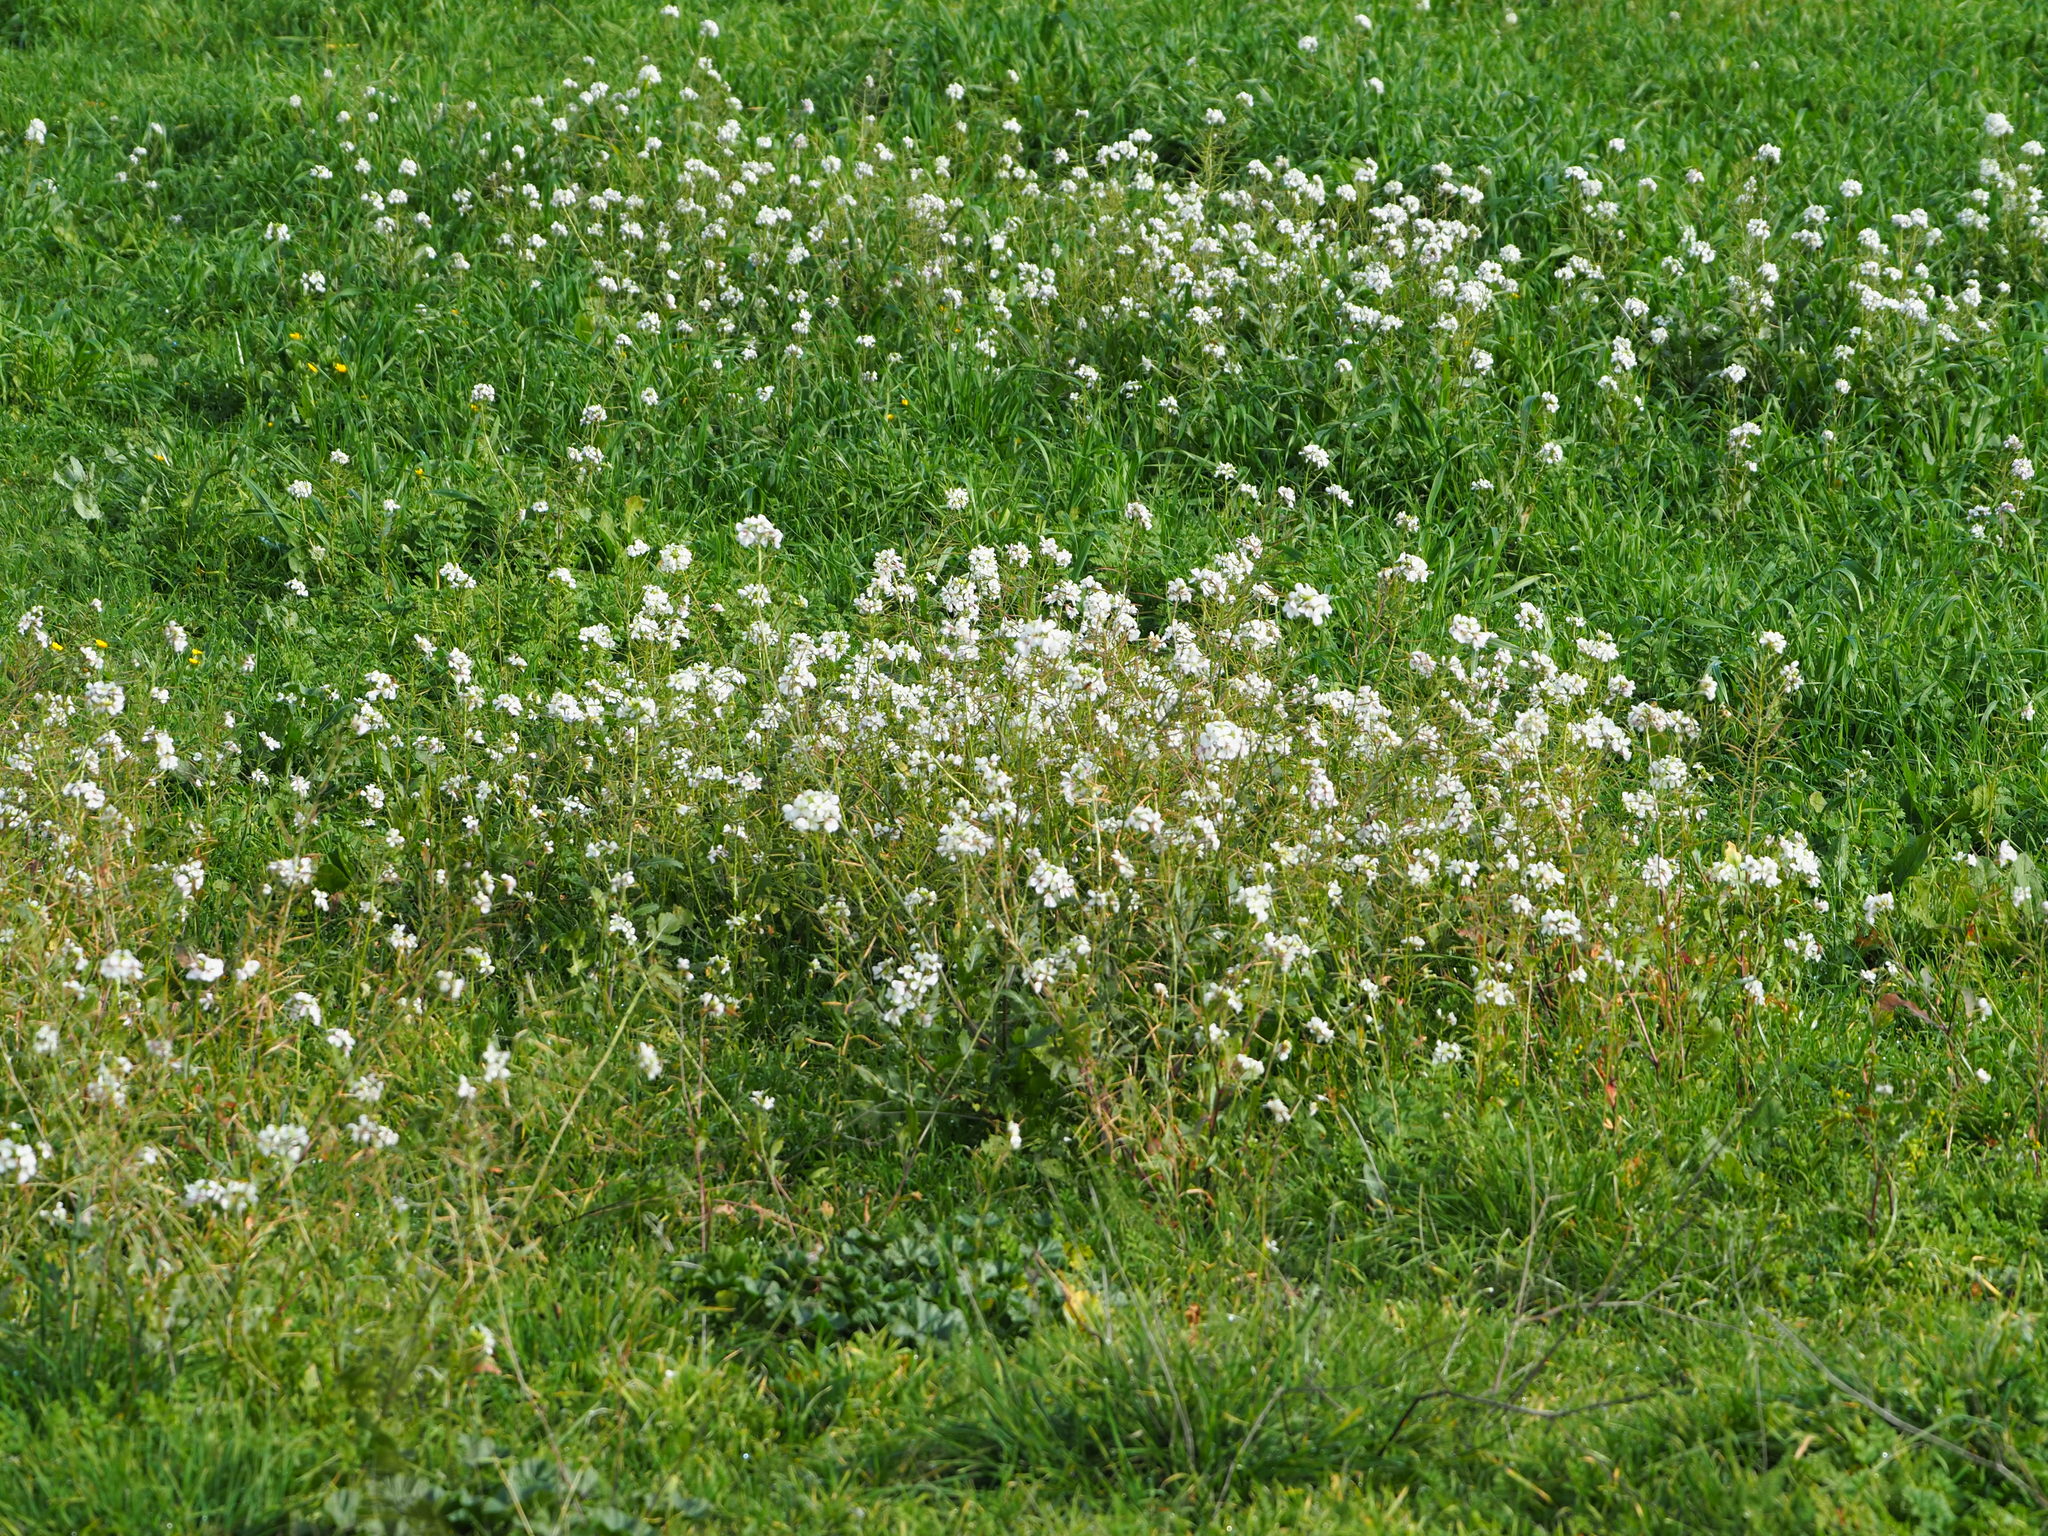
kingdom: Plantae
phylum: Tracheophyta
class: Magnoliopsida
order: Brassicales
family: Brassicaceae
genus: Diplotaxis
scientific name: Diplotaxis erucoides
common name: White rocket
